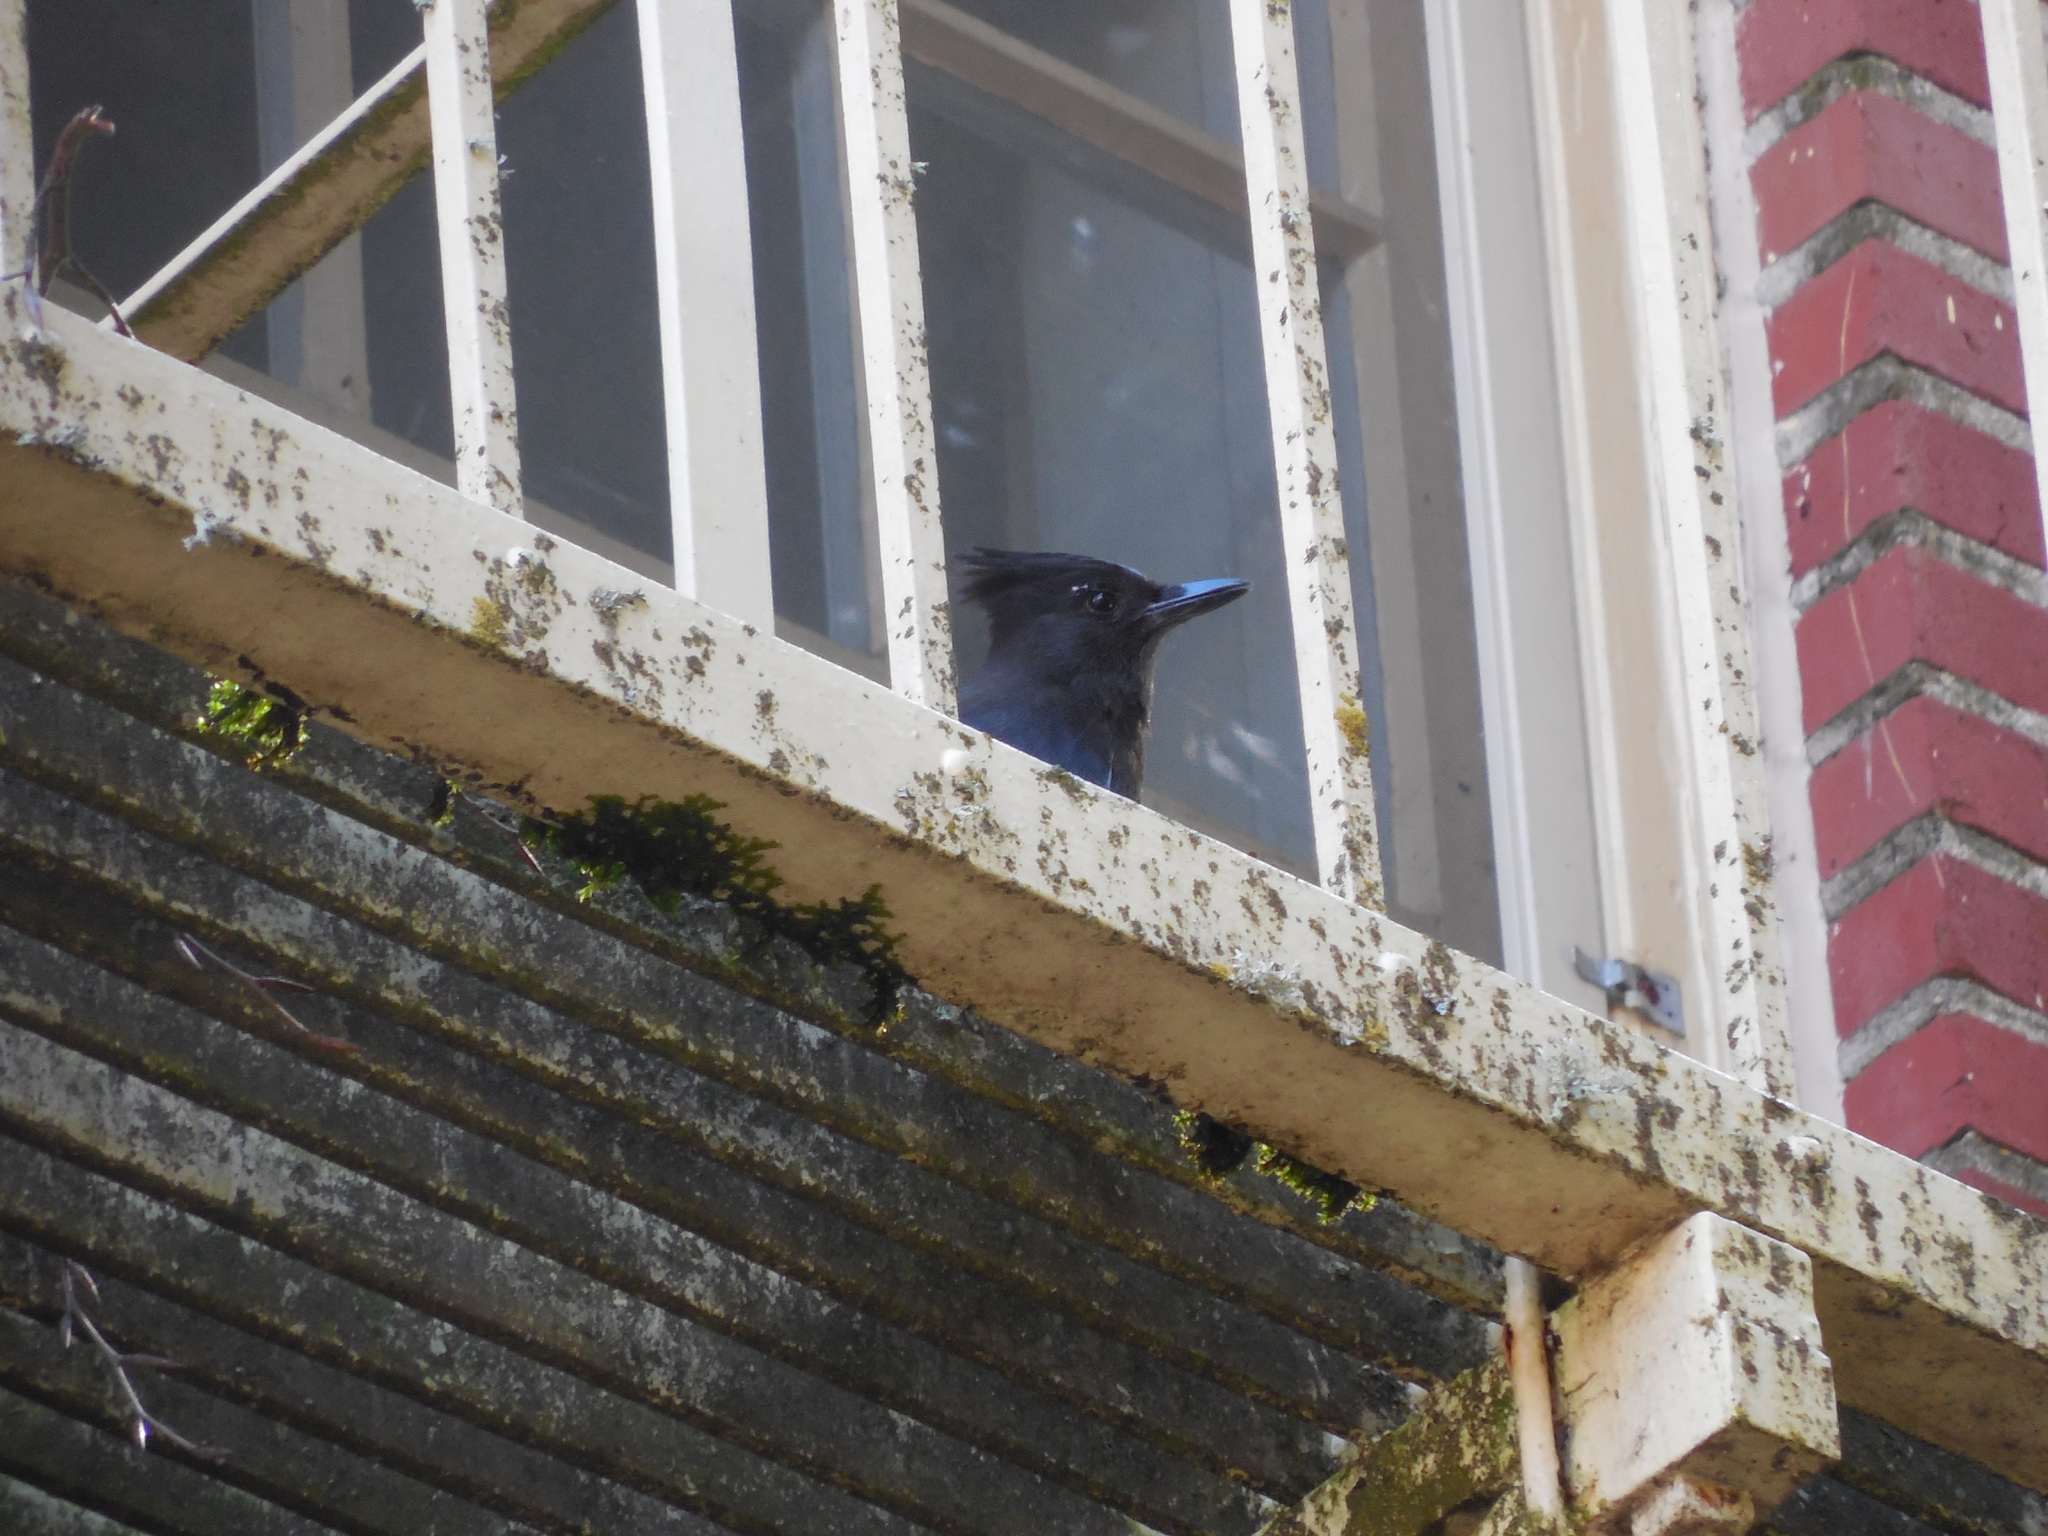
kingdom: Animalia
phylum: Chordata
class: Aves
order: Passeriformes
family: Corvidae
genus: Cyanocitta
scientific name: Cyanocitta stelleri
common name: Steller's jay
